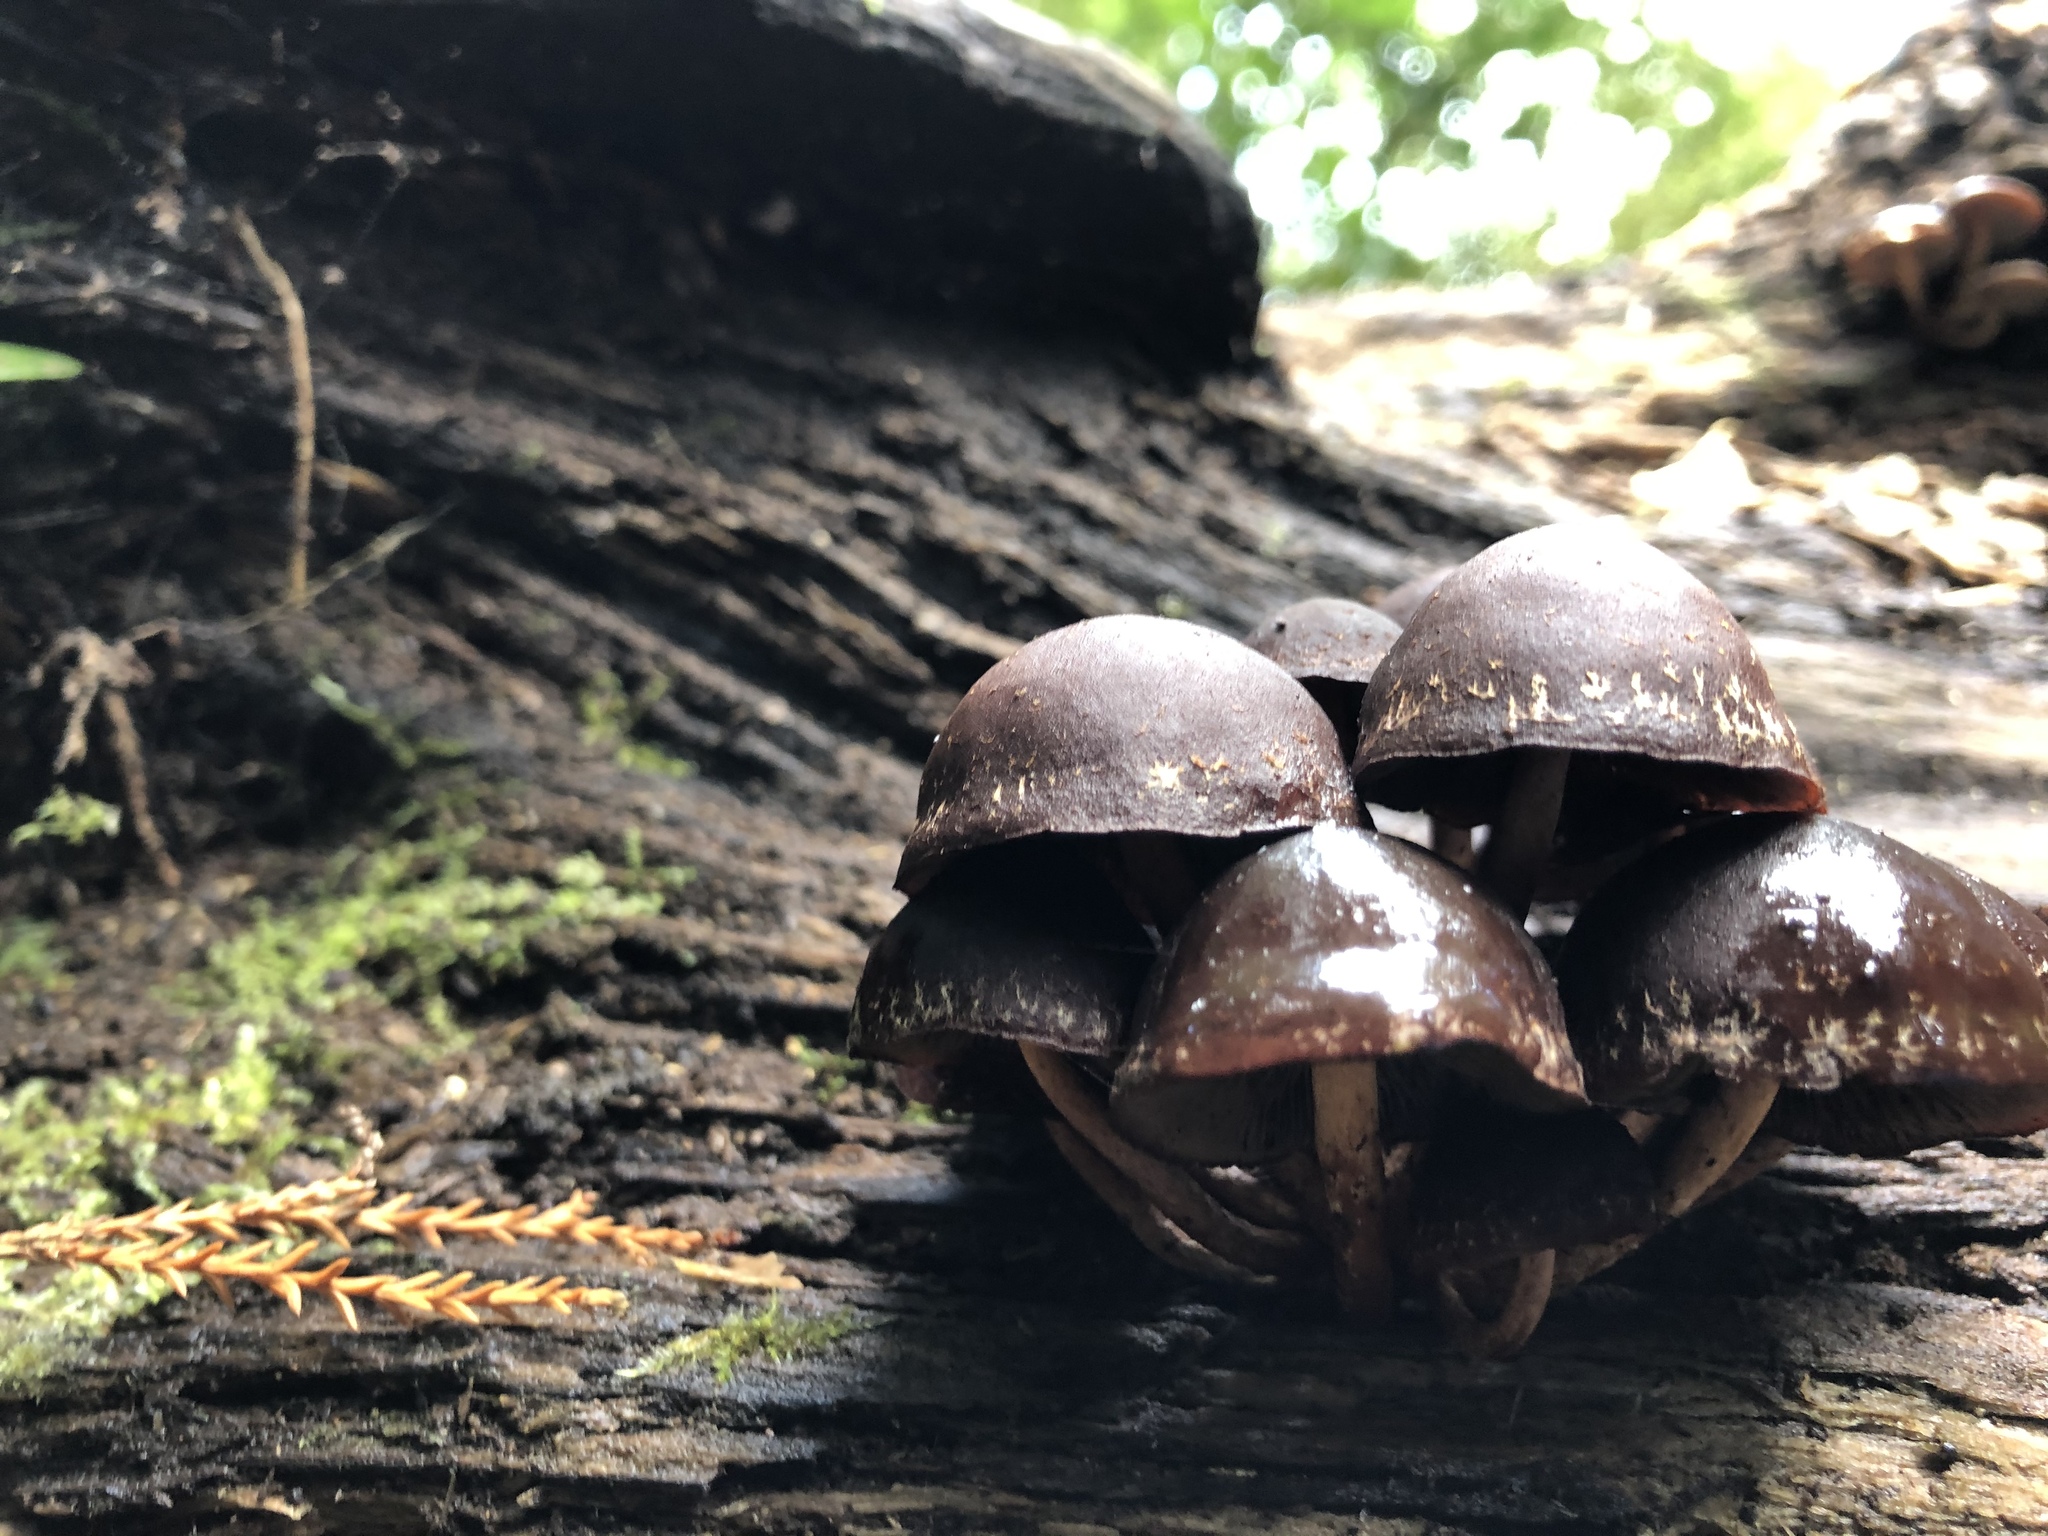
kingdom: Fungi
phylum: Basidiomycota
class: Agaricomycetes
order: Agaricales
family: Strophariaceae
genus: Hypholoma
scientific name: Hypholoma brunneum
